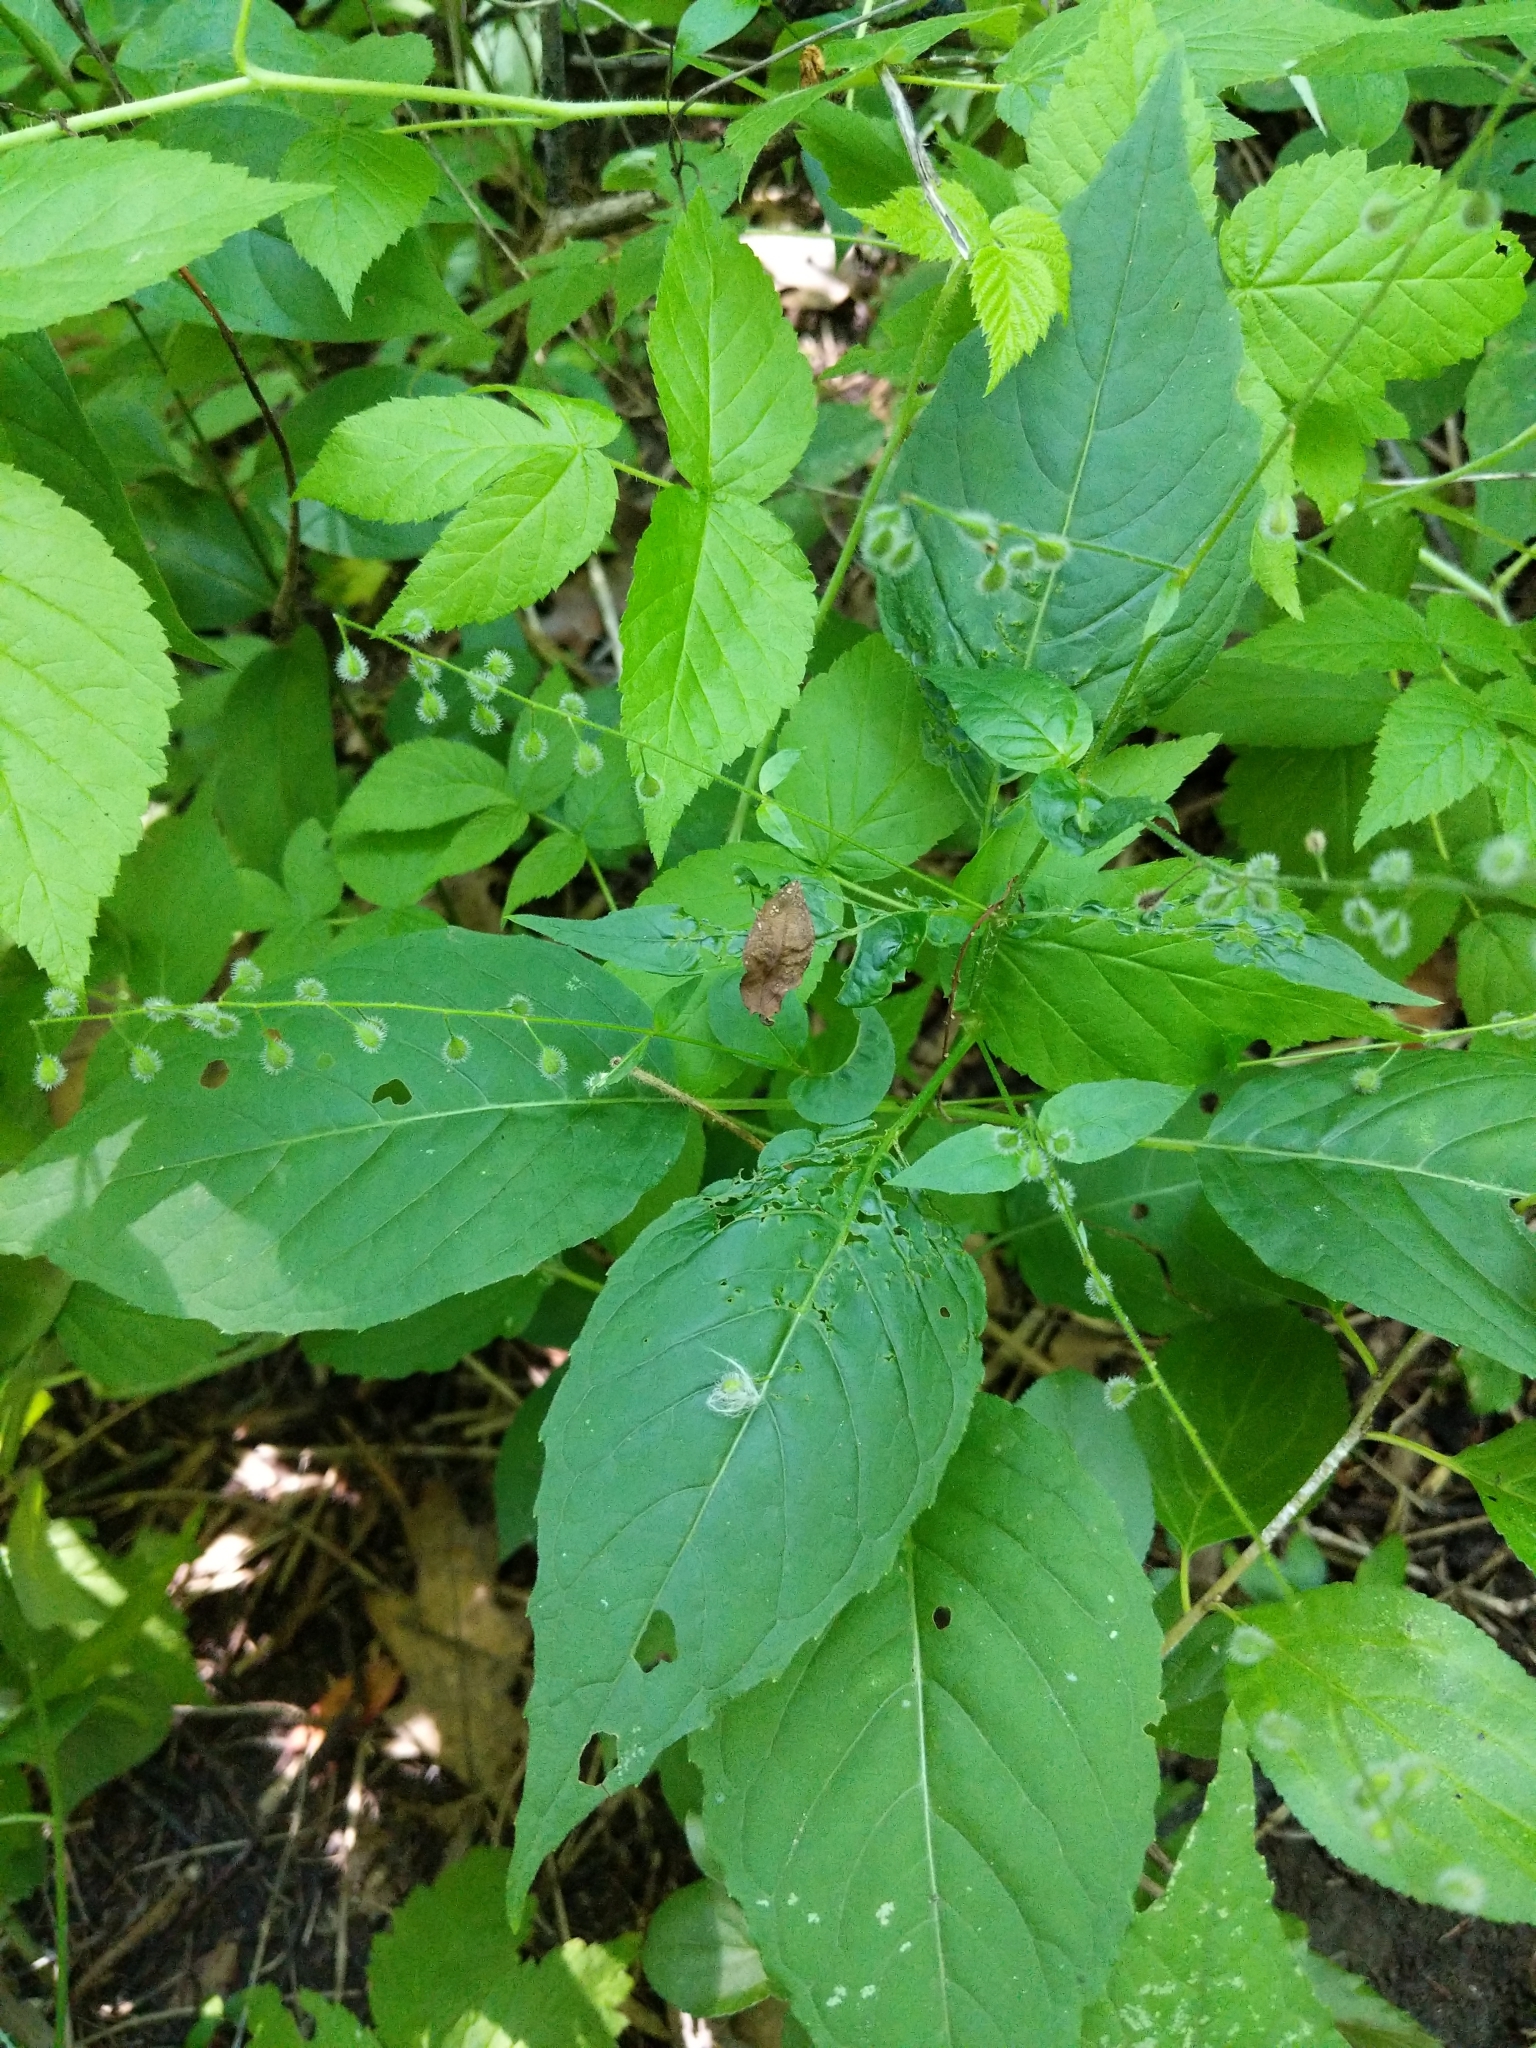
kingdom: Plantae
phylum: Tracheophyta
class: Magnoliopsida
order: Myrtales
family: Onagraceae
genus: Circaea
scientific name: Circaea canadensis
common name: Broad-leaved enchanter's nightshade
